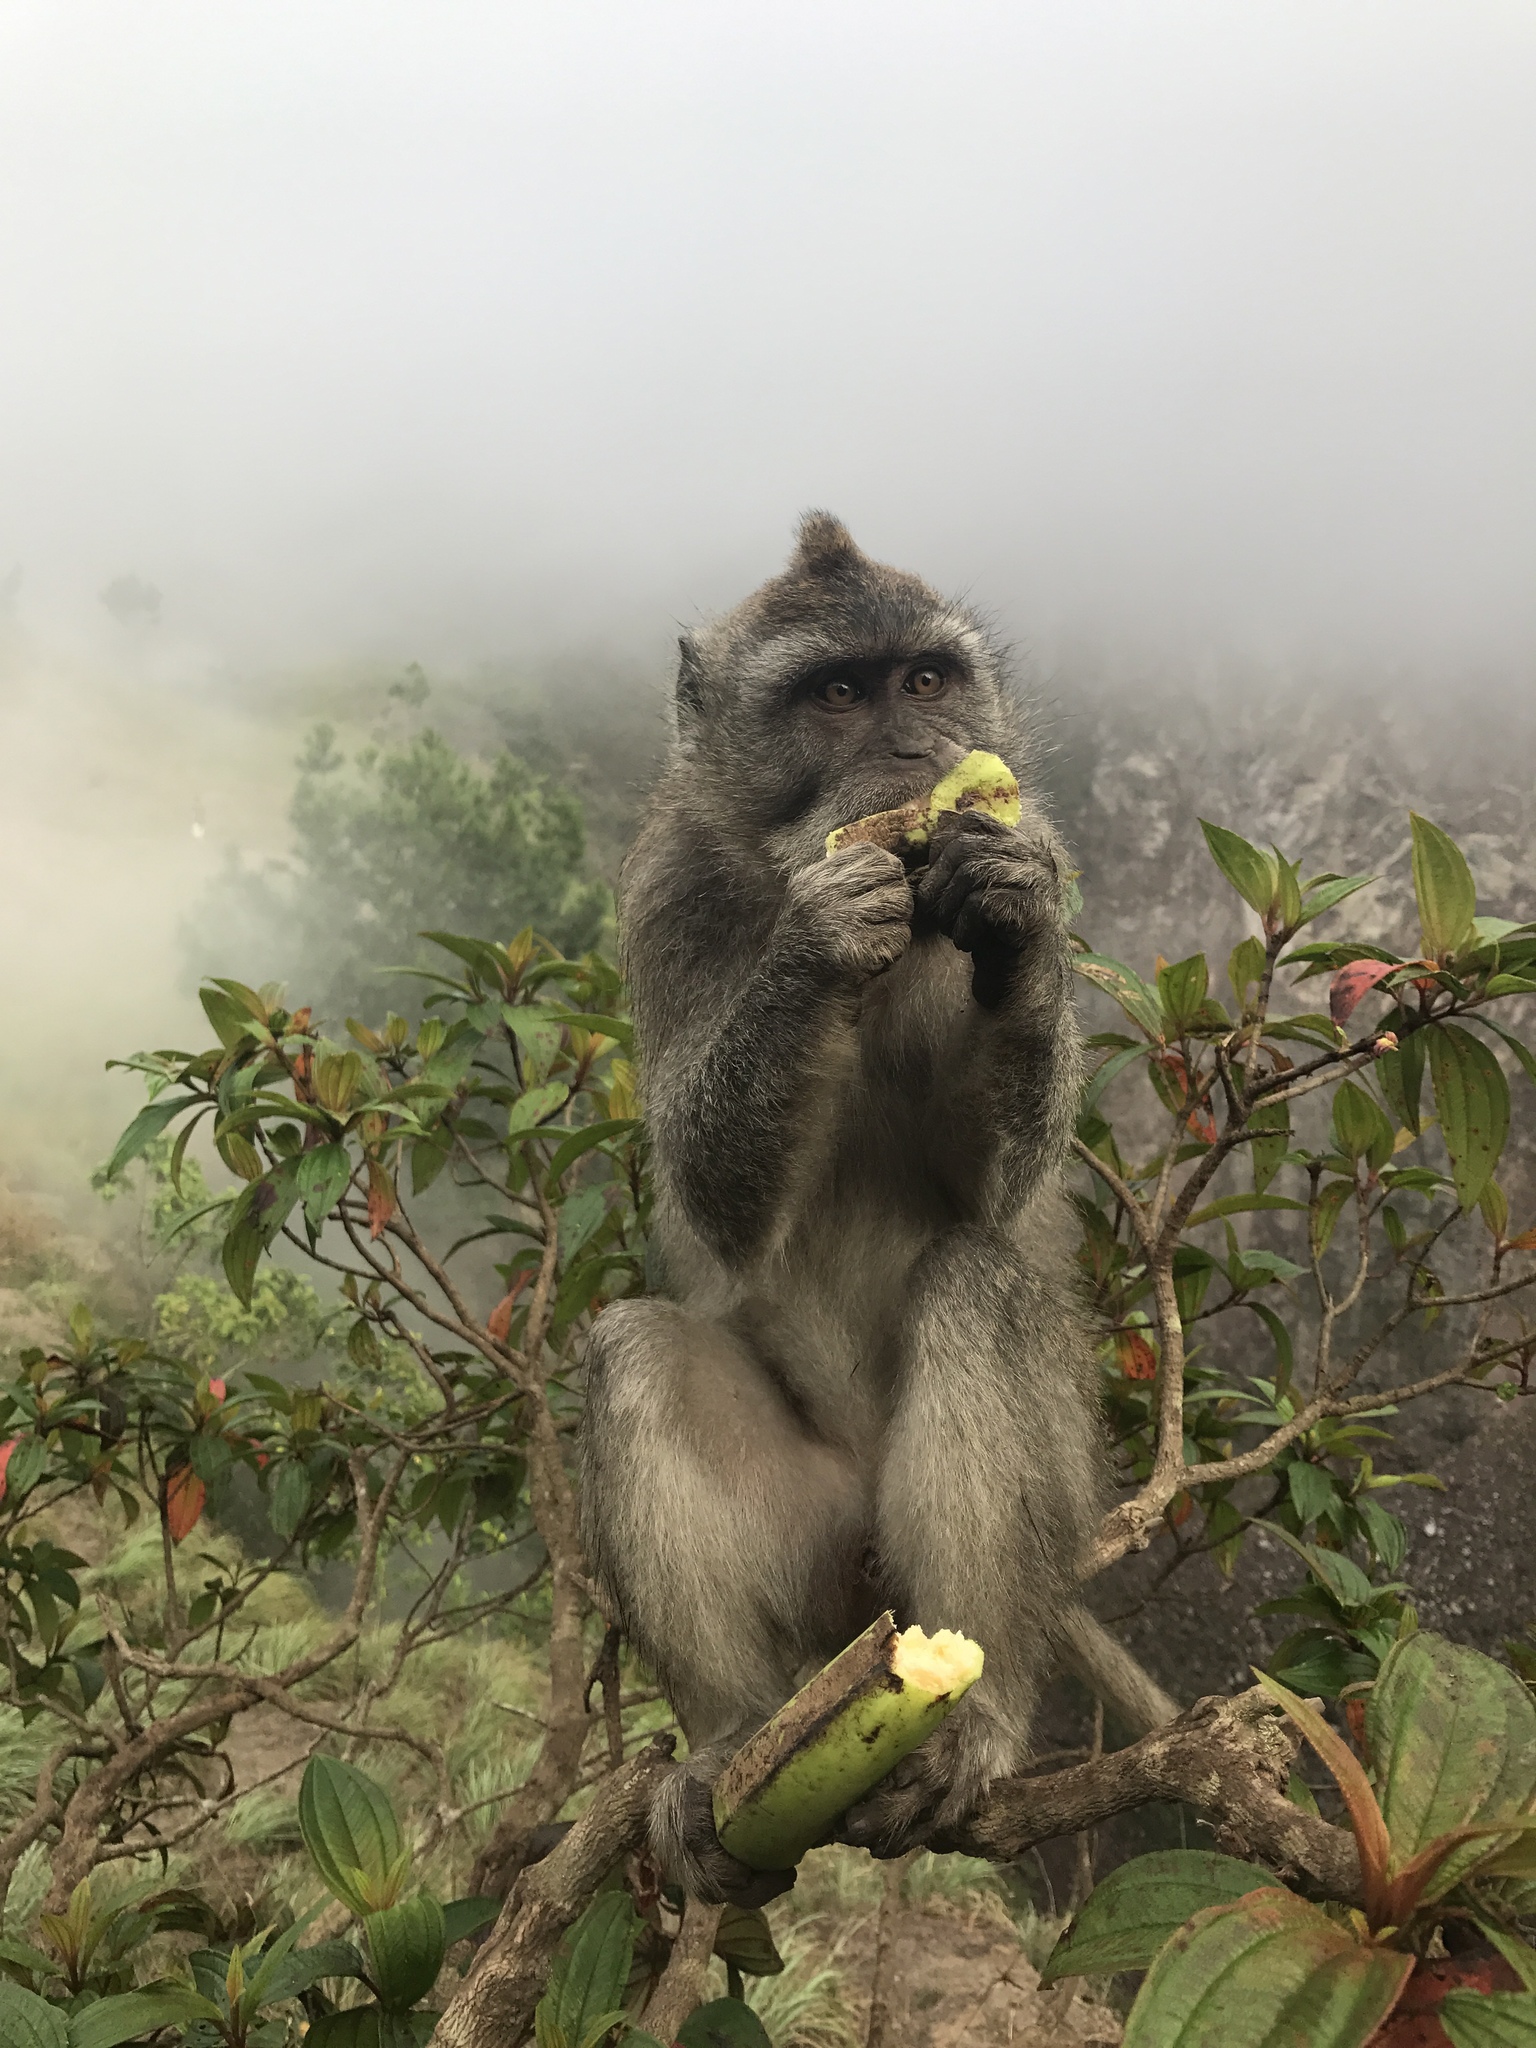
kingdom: Animalia
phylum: Chordata
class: Mammalia
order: Primates
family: Cercopithecidae
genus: Macaca
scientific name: Macaca fascicularis
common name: Crab-eating macaque
